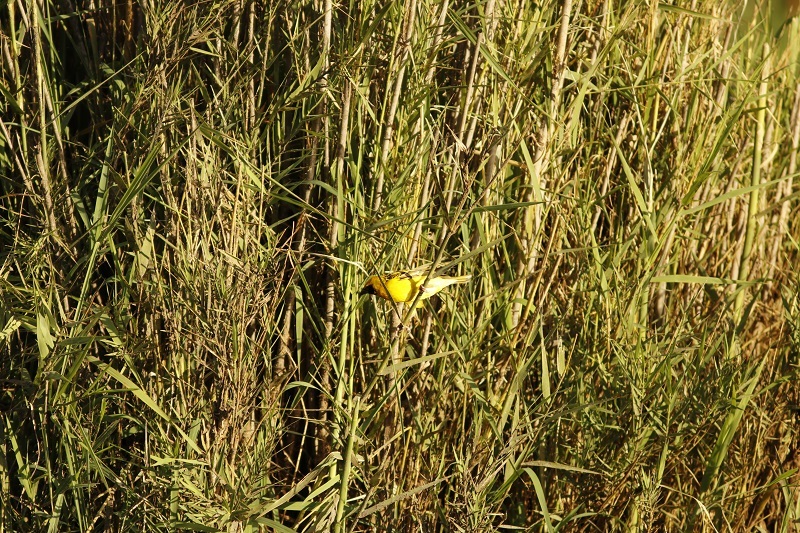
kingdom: Animalia
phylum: Chordata
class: Aves
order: Passeriformes
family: Ploceidae
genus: Ploceus
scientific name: Ploceus cucullatus
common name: Village weaver
